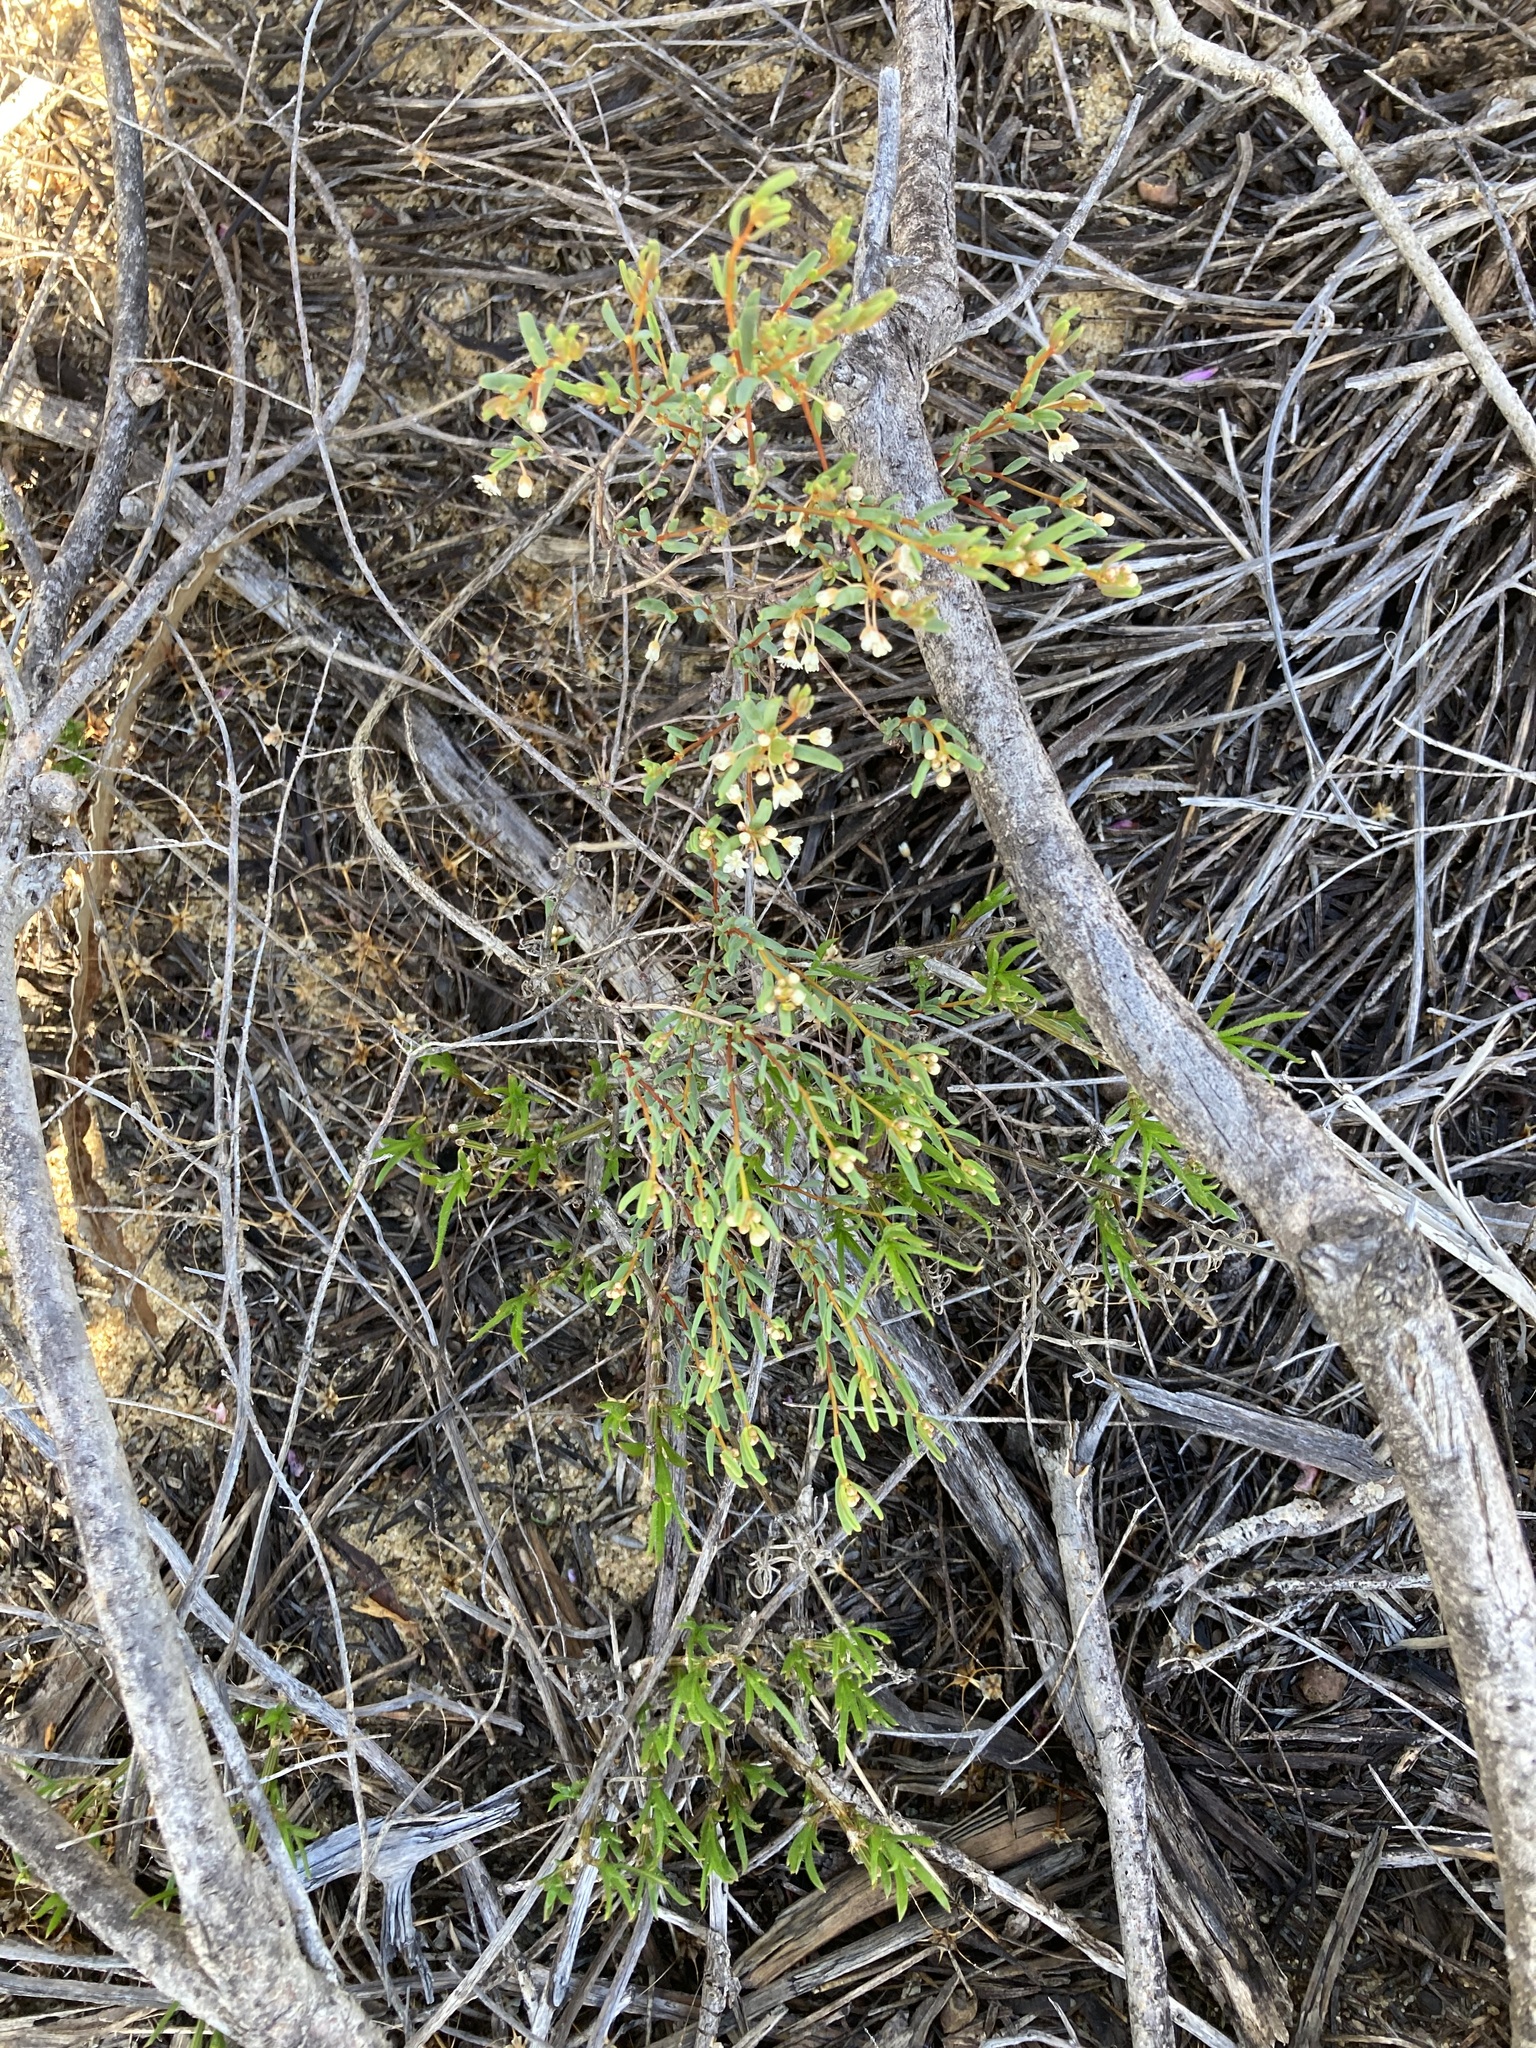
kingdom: Plantae
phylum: Tracheophyta
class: Magnoliopsida
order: Malpighiales
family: Euphorbiaceae
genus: Monotaxis
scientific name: Monotaxis bracteata
